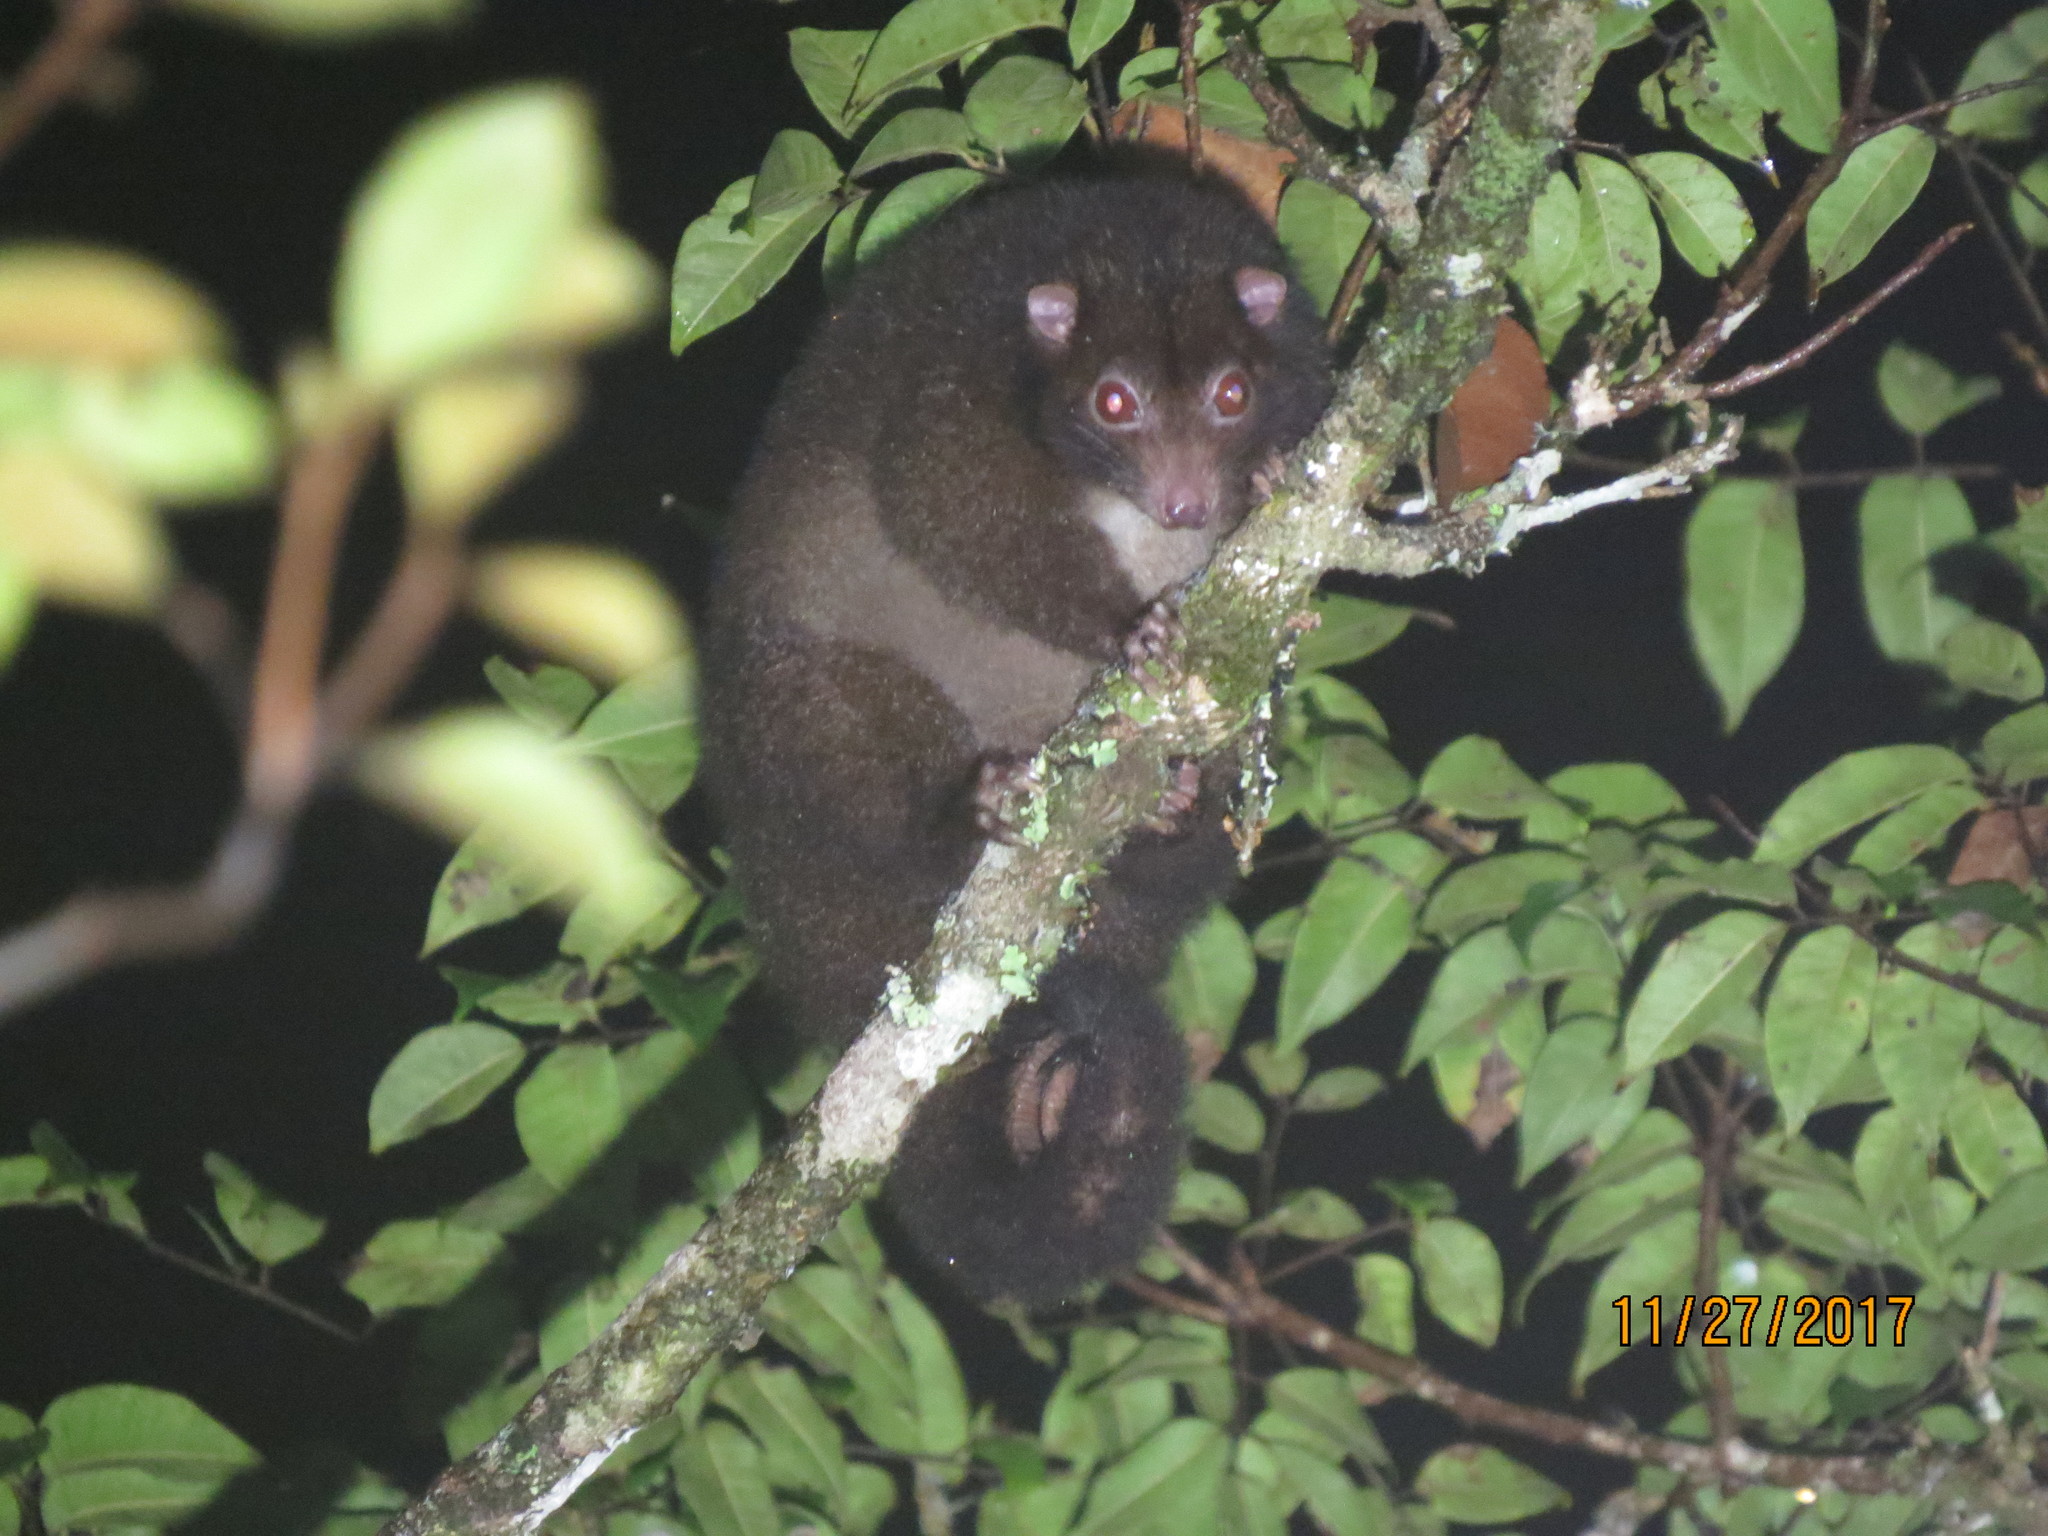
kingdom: Animalia
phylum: Chordata
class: Mammalia
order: Diprotodontia
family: Pseudocheiridae
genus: Hemibelideus
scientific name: Hemibelideus lemuroides
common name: Lemur-like ringtail
